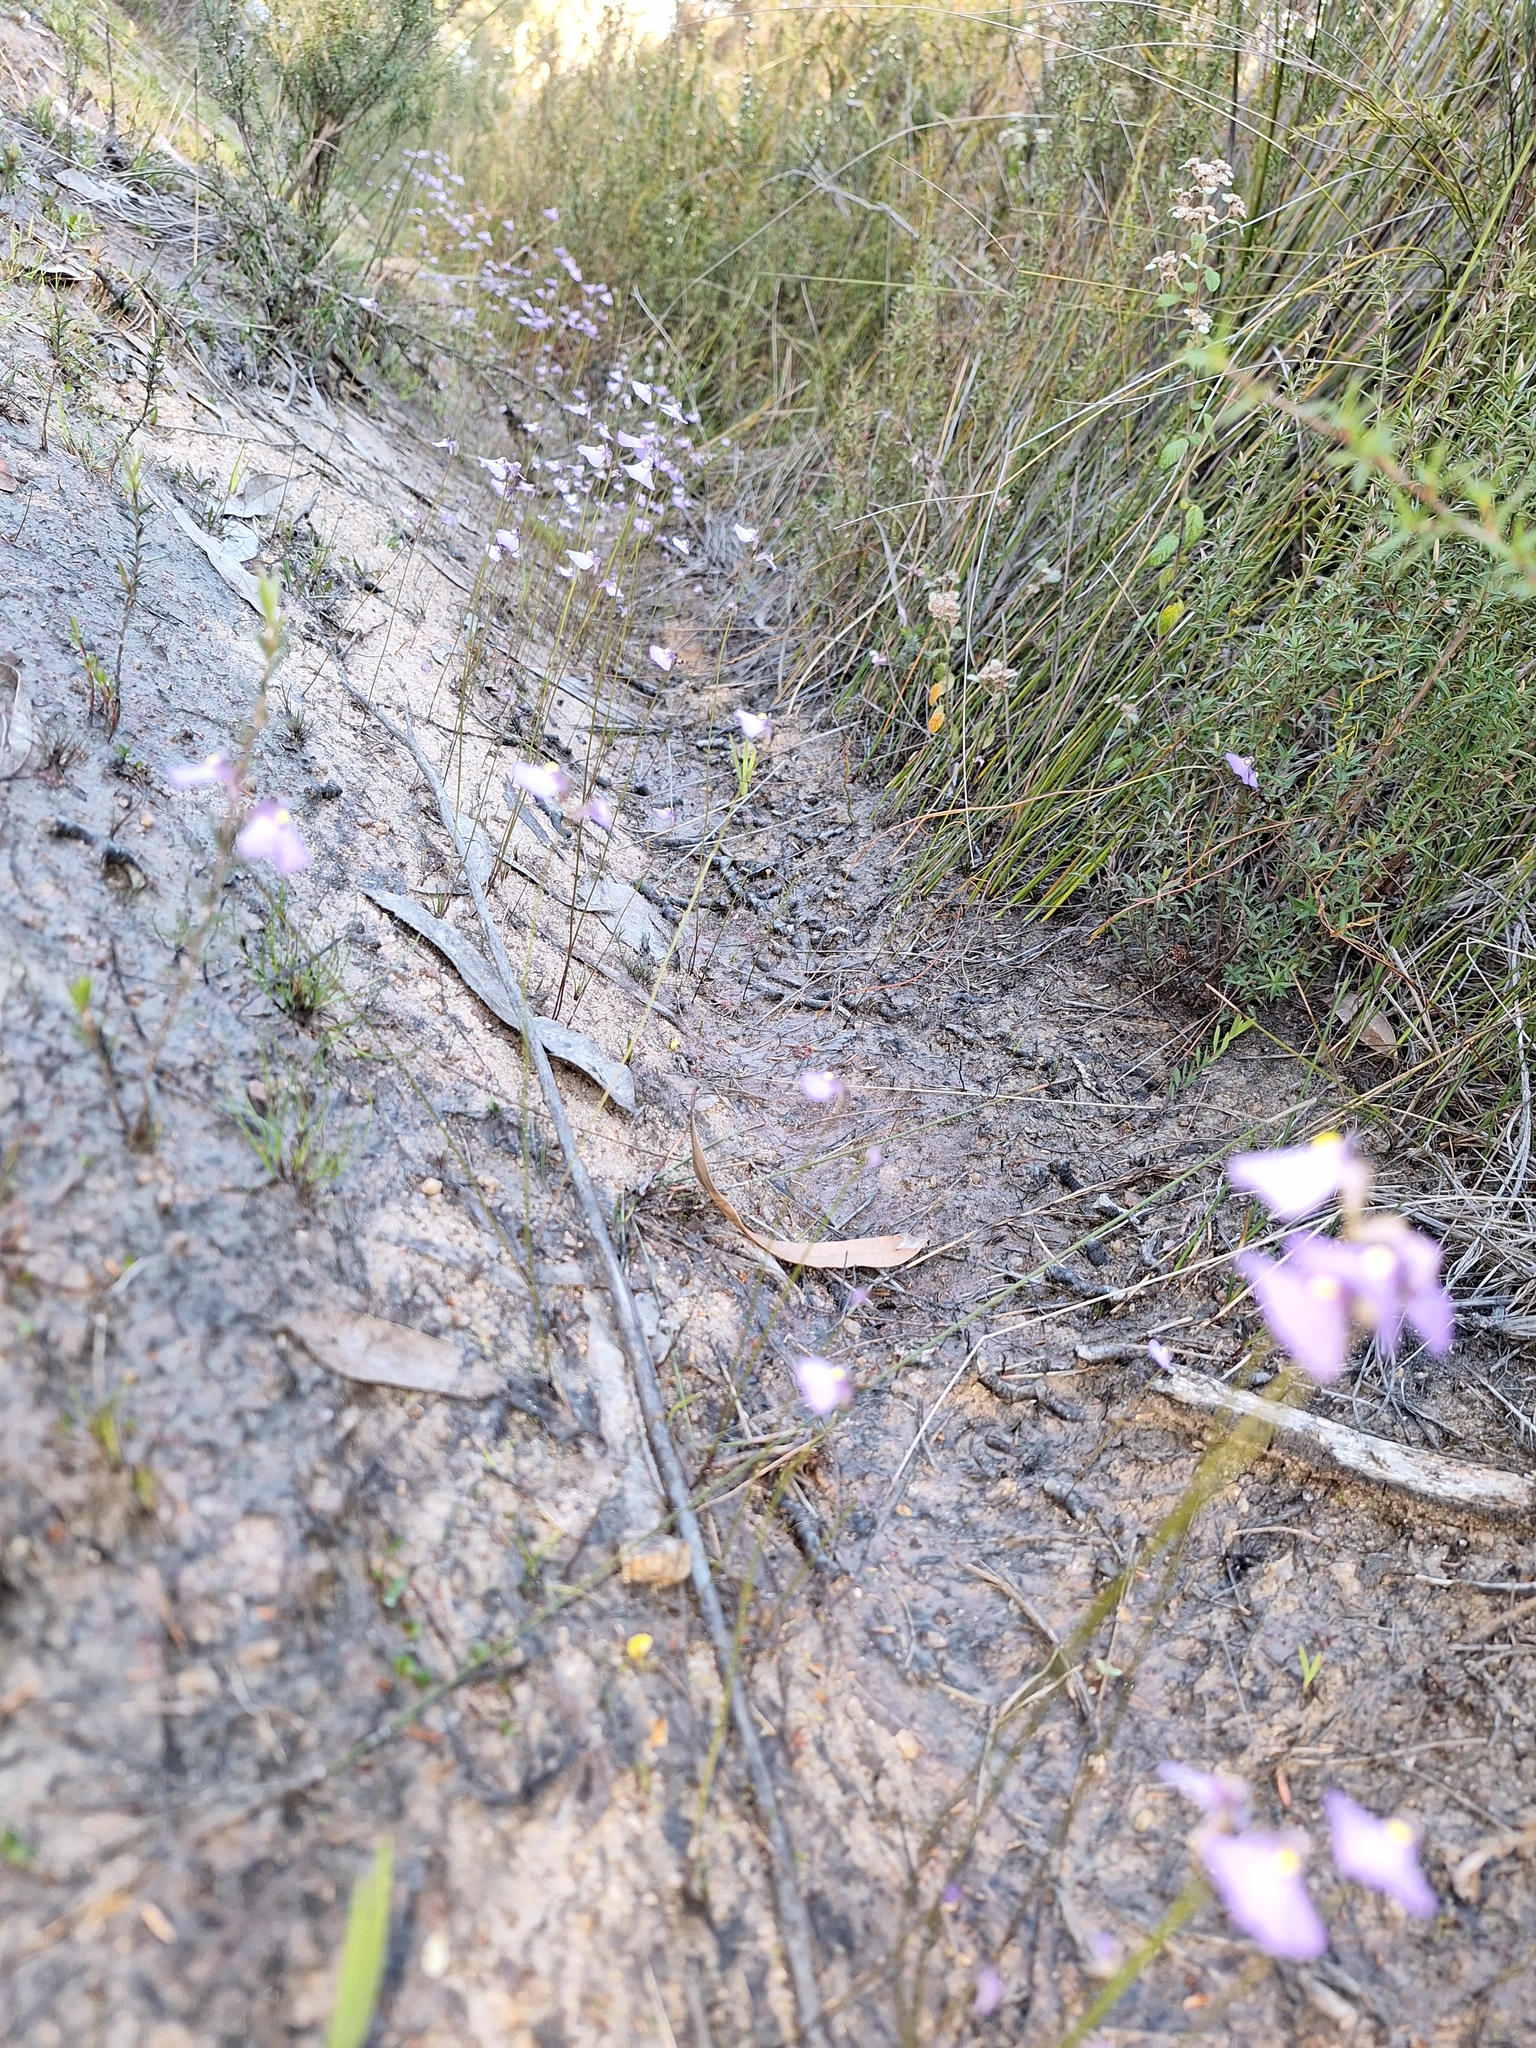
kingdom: Plantae
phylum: Tracheophyta
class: Magnoliopsida
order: Lamiales
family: Lentibulariaceae
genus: Utricularia
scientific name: Utricularia barkeri
